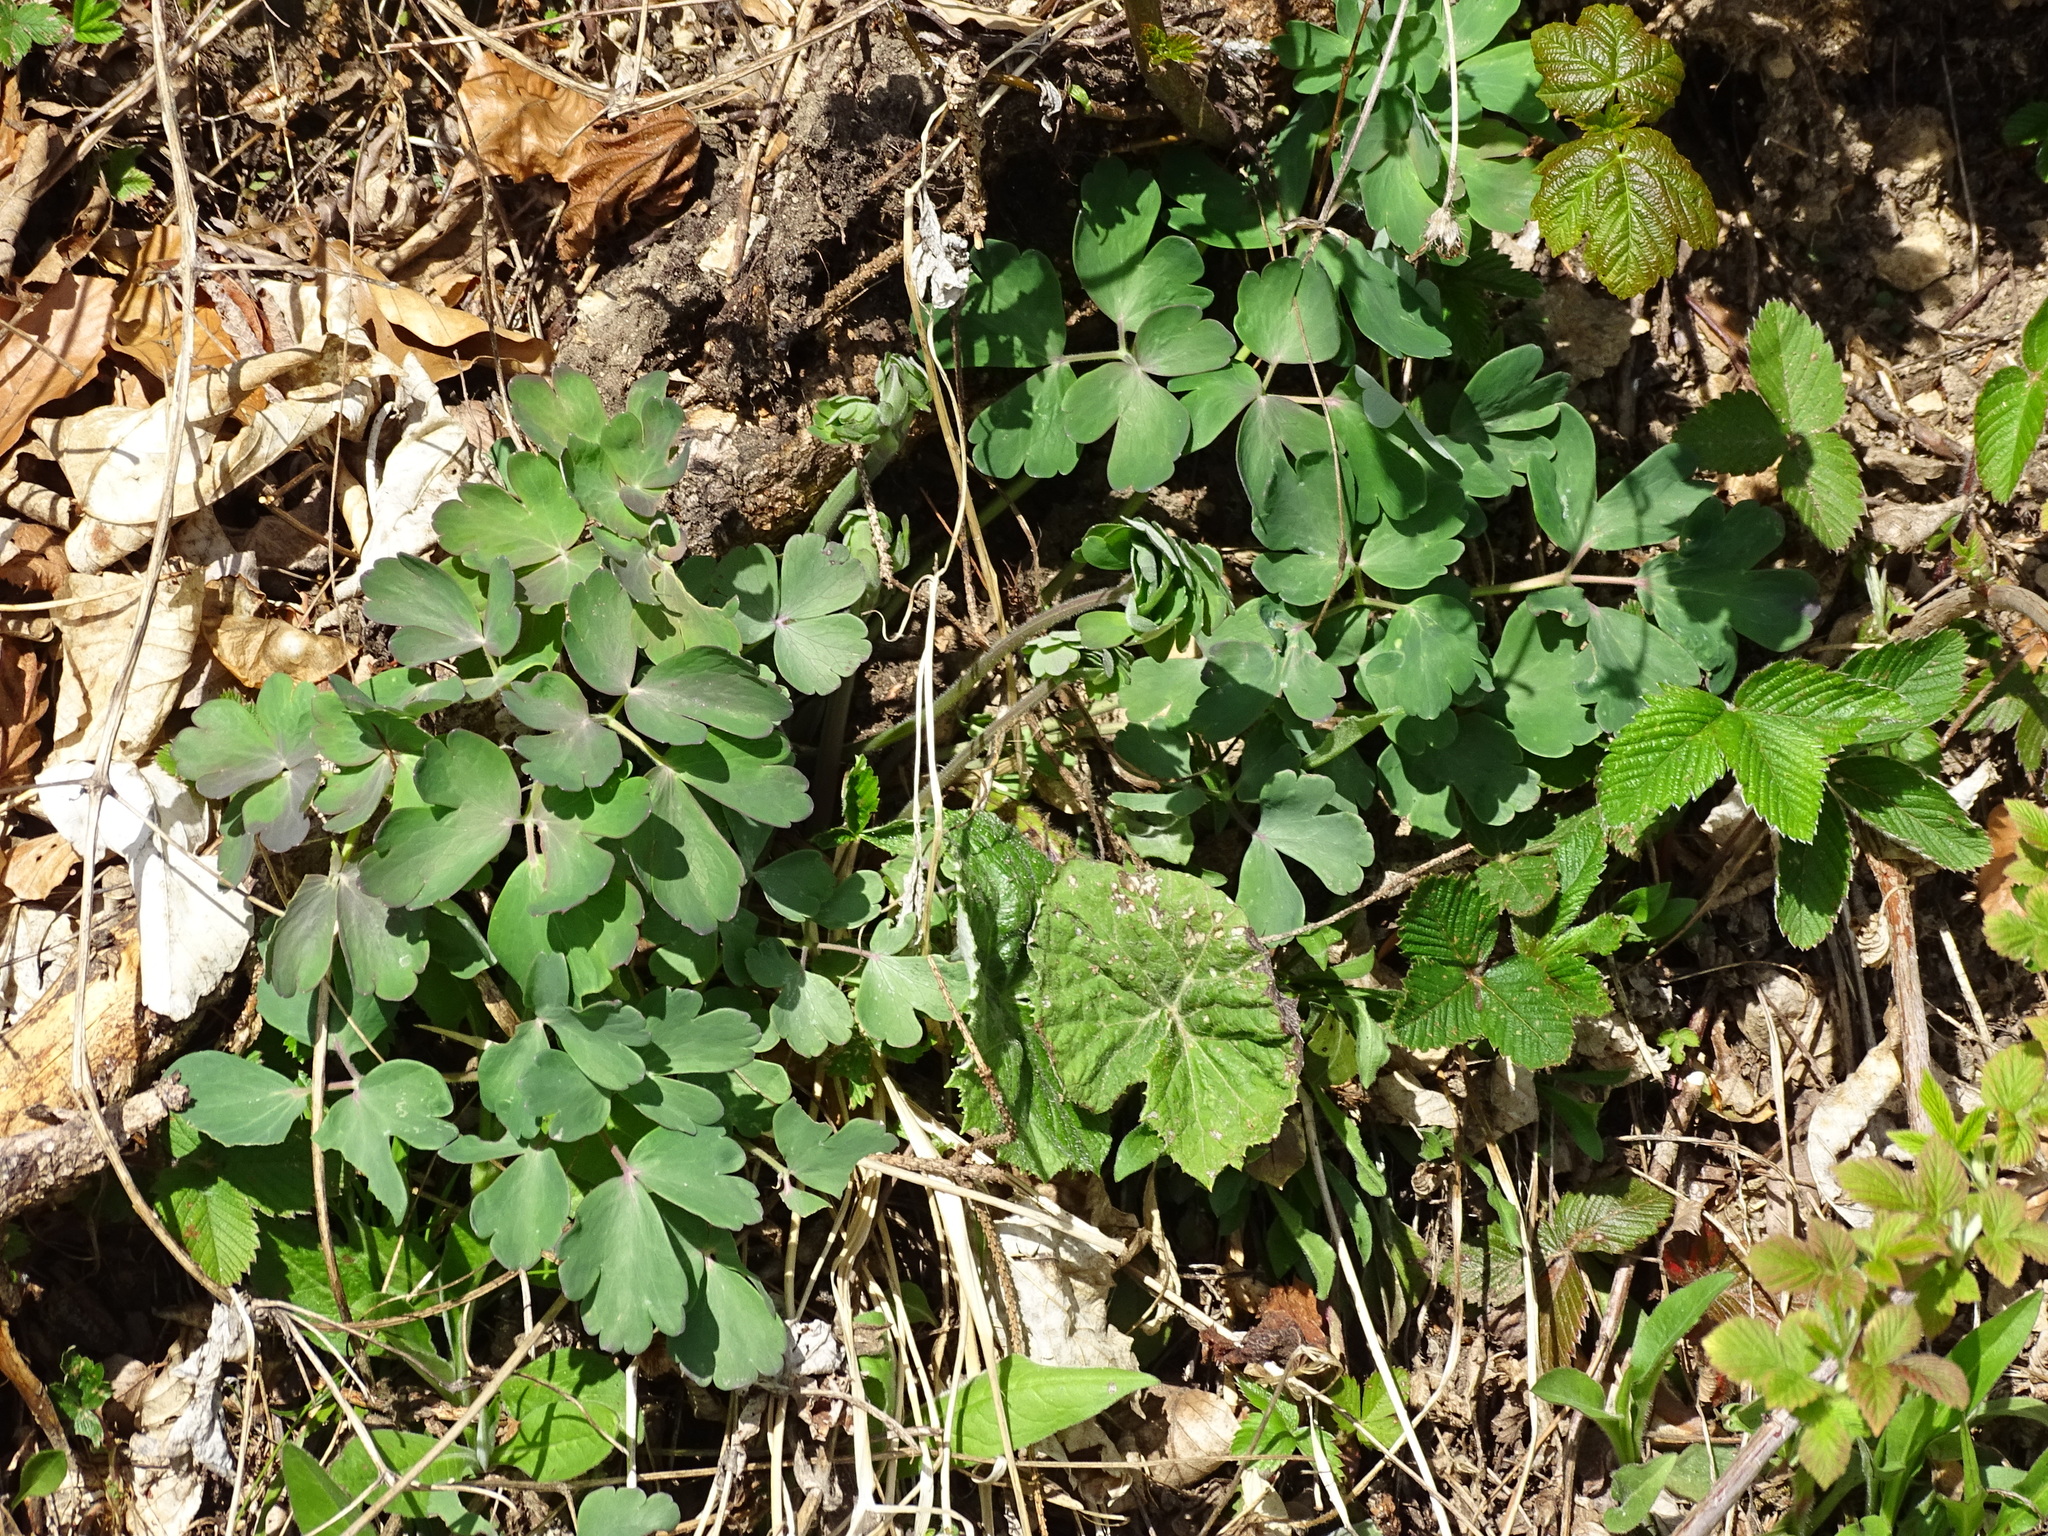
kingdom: Plantae
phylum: Tracheophyta
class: Magnoliopsida
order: Ranunculales
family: Ranunculaceae
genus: Aquilegia
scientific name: Aquilegia vulgaris
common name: Columbine
